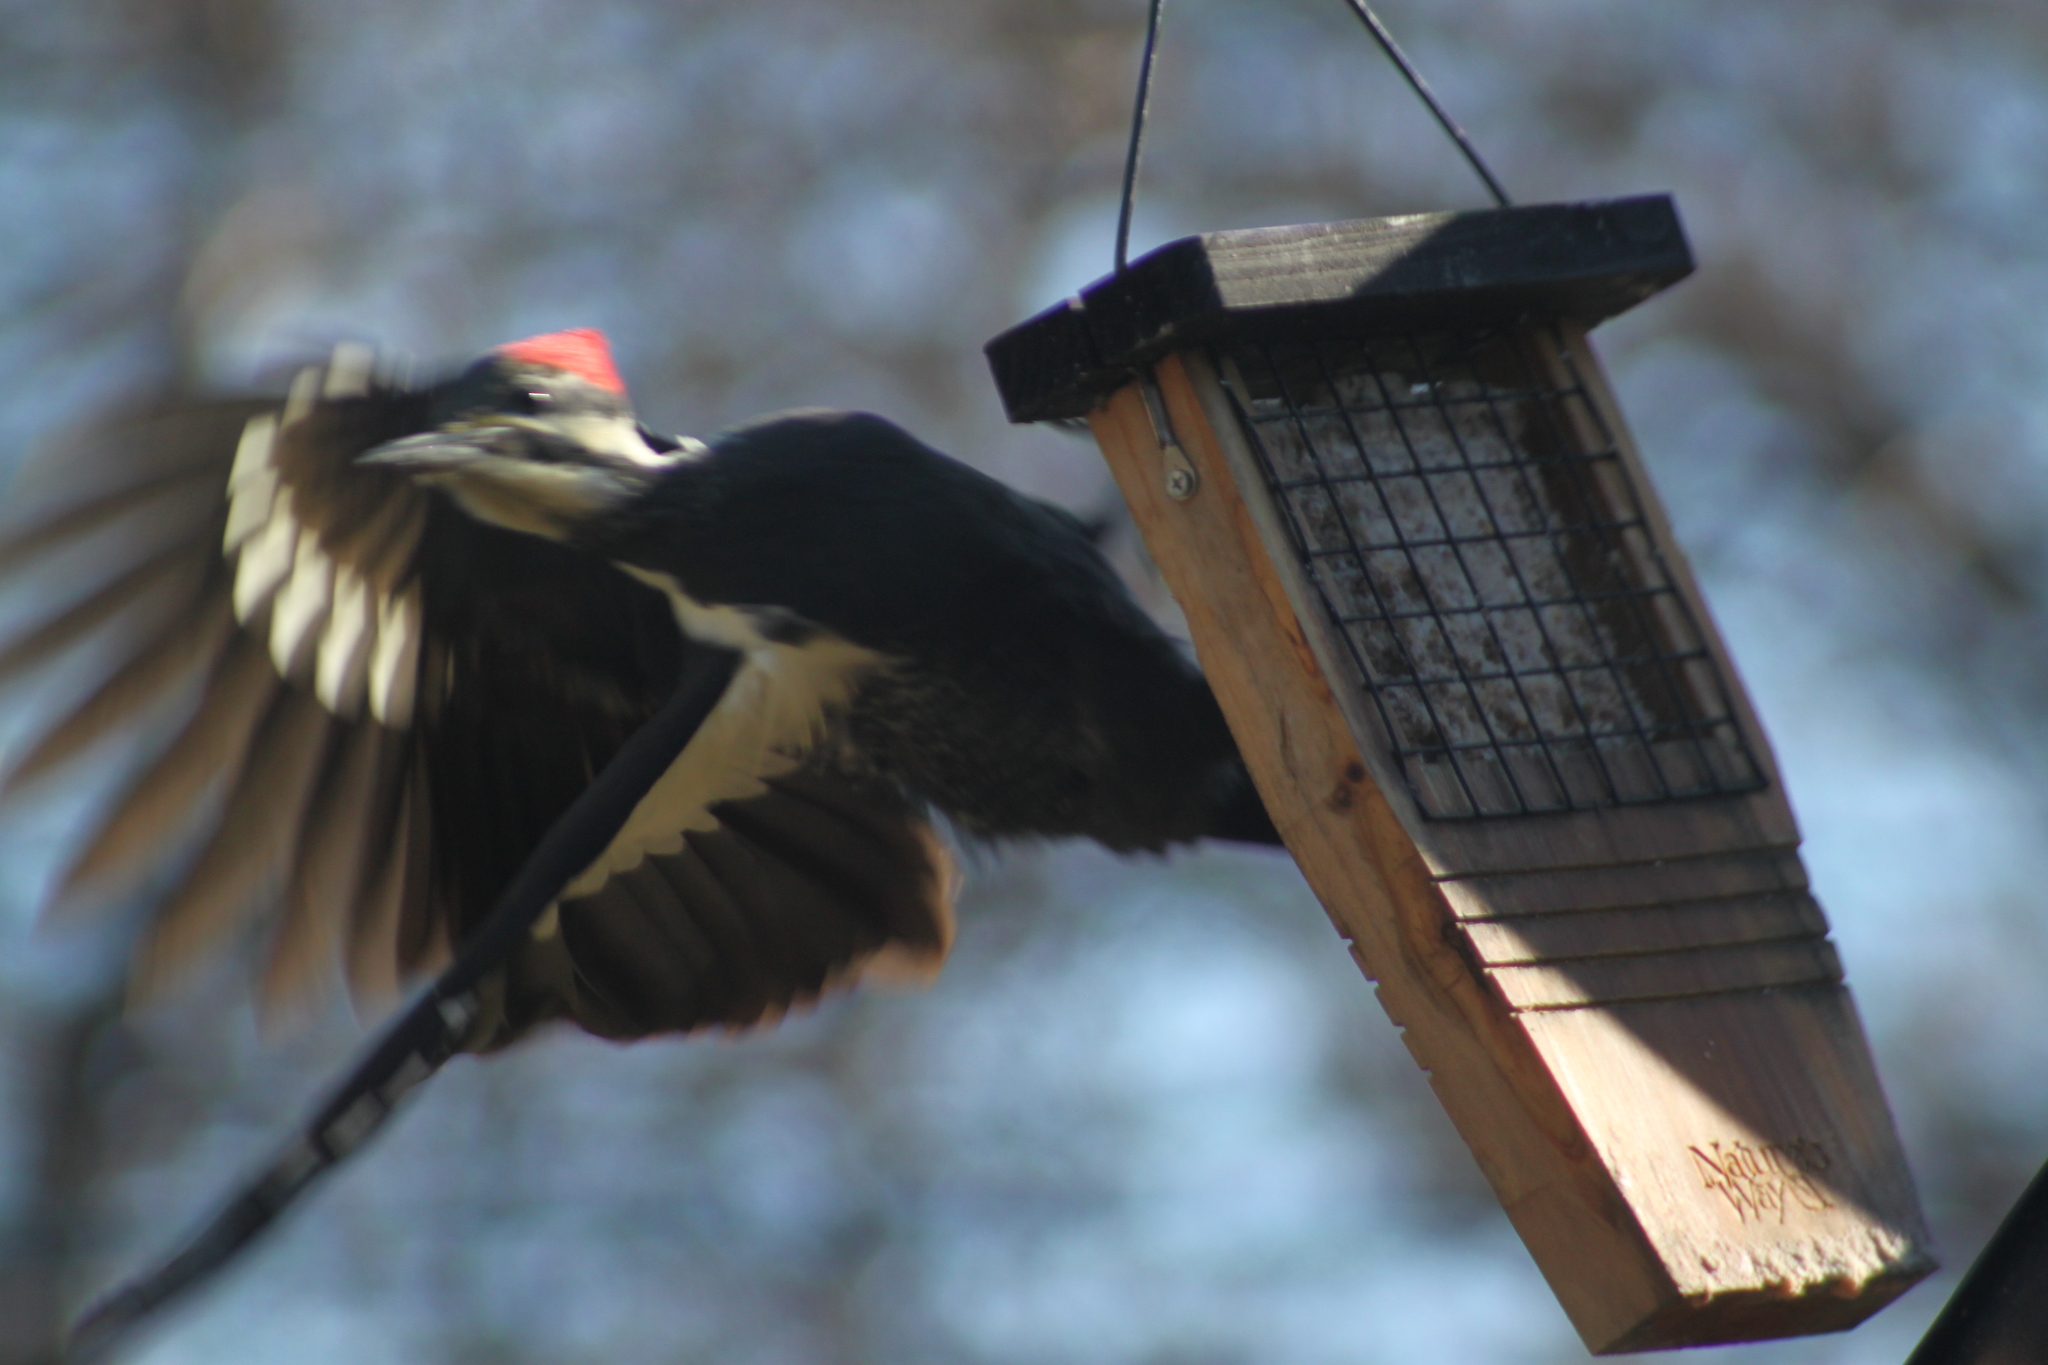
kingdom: Animalia
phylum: Chordata
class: Aves
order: Piciformes
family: Picidae
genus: Dryocopus
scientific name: Dryocopus pileatus
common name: Pileated woodpecker
